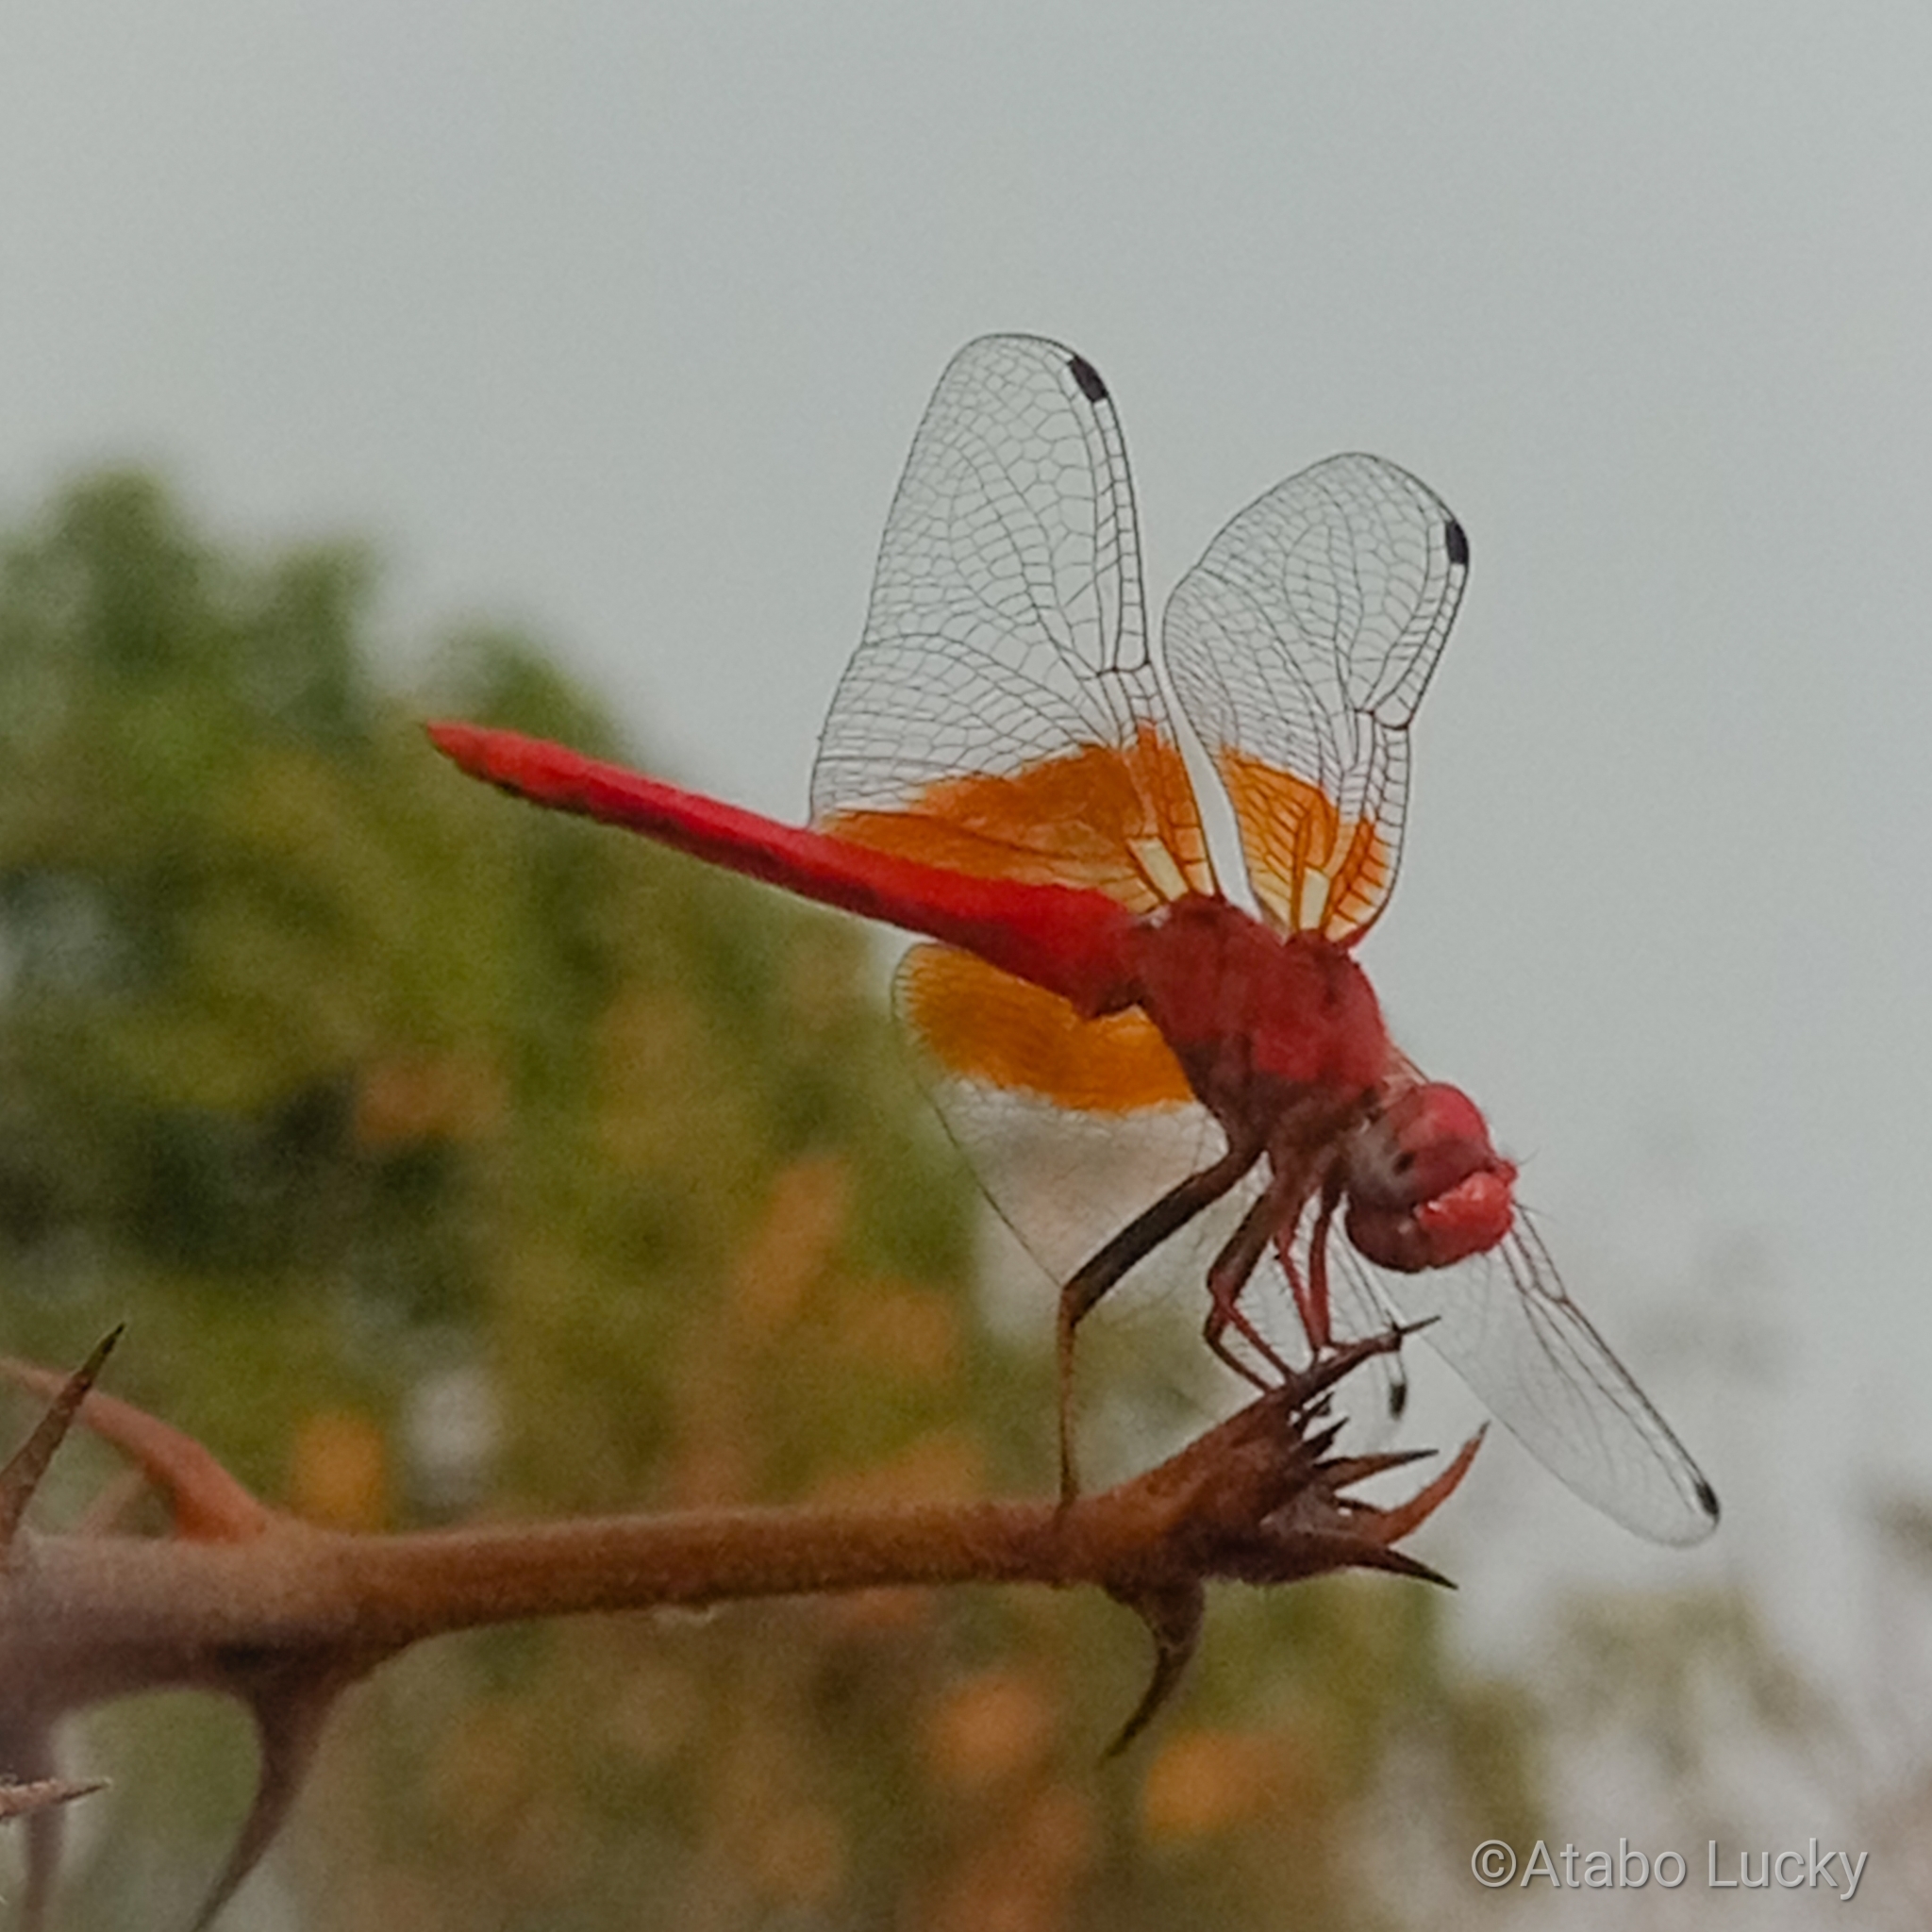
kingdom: Animalia
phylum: Arthropoda
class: Insecta
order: Odonata
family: Libellulidae
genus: Trithemis
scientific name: Trithemis kirbyi
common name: Kirby's dropwing
